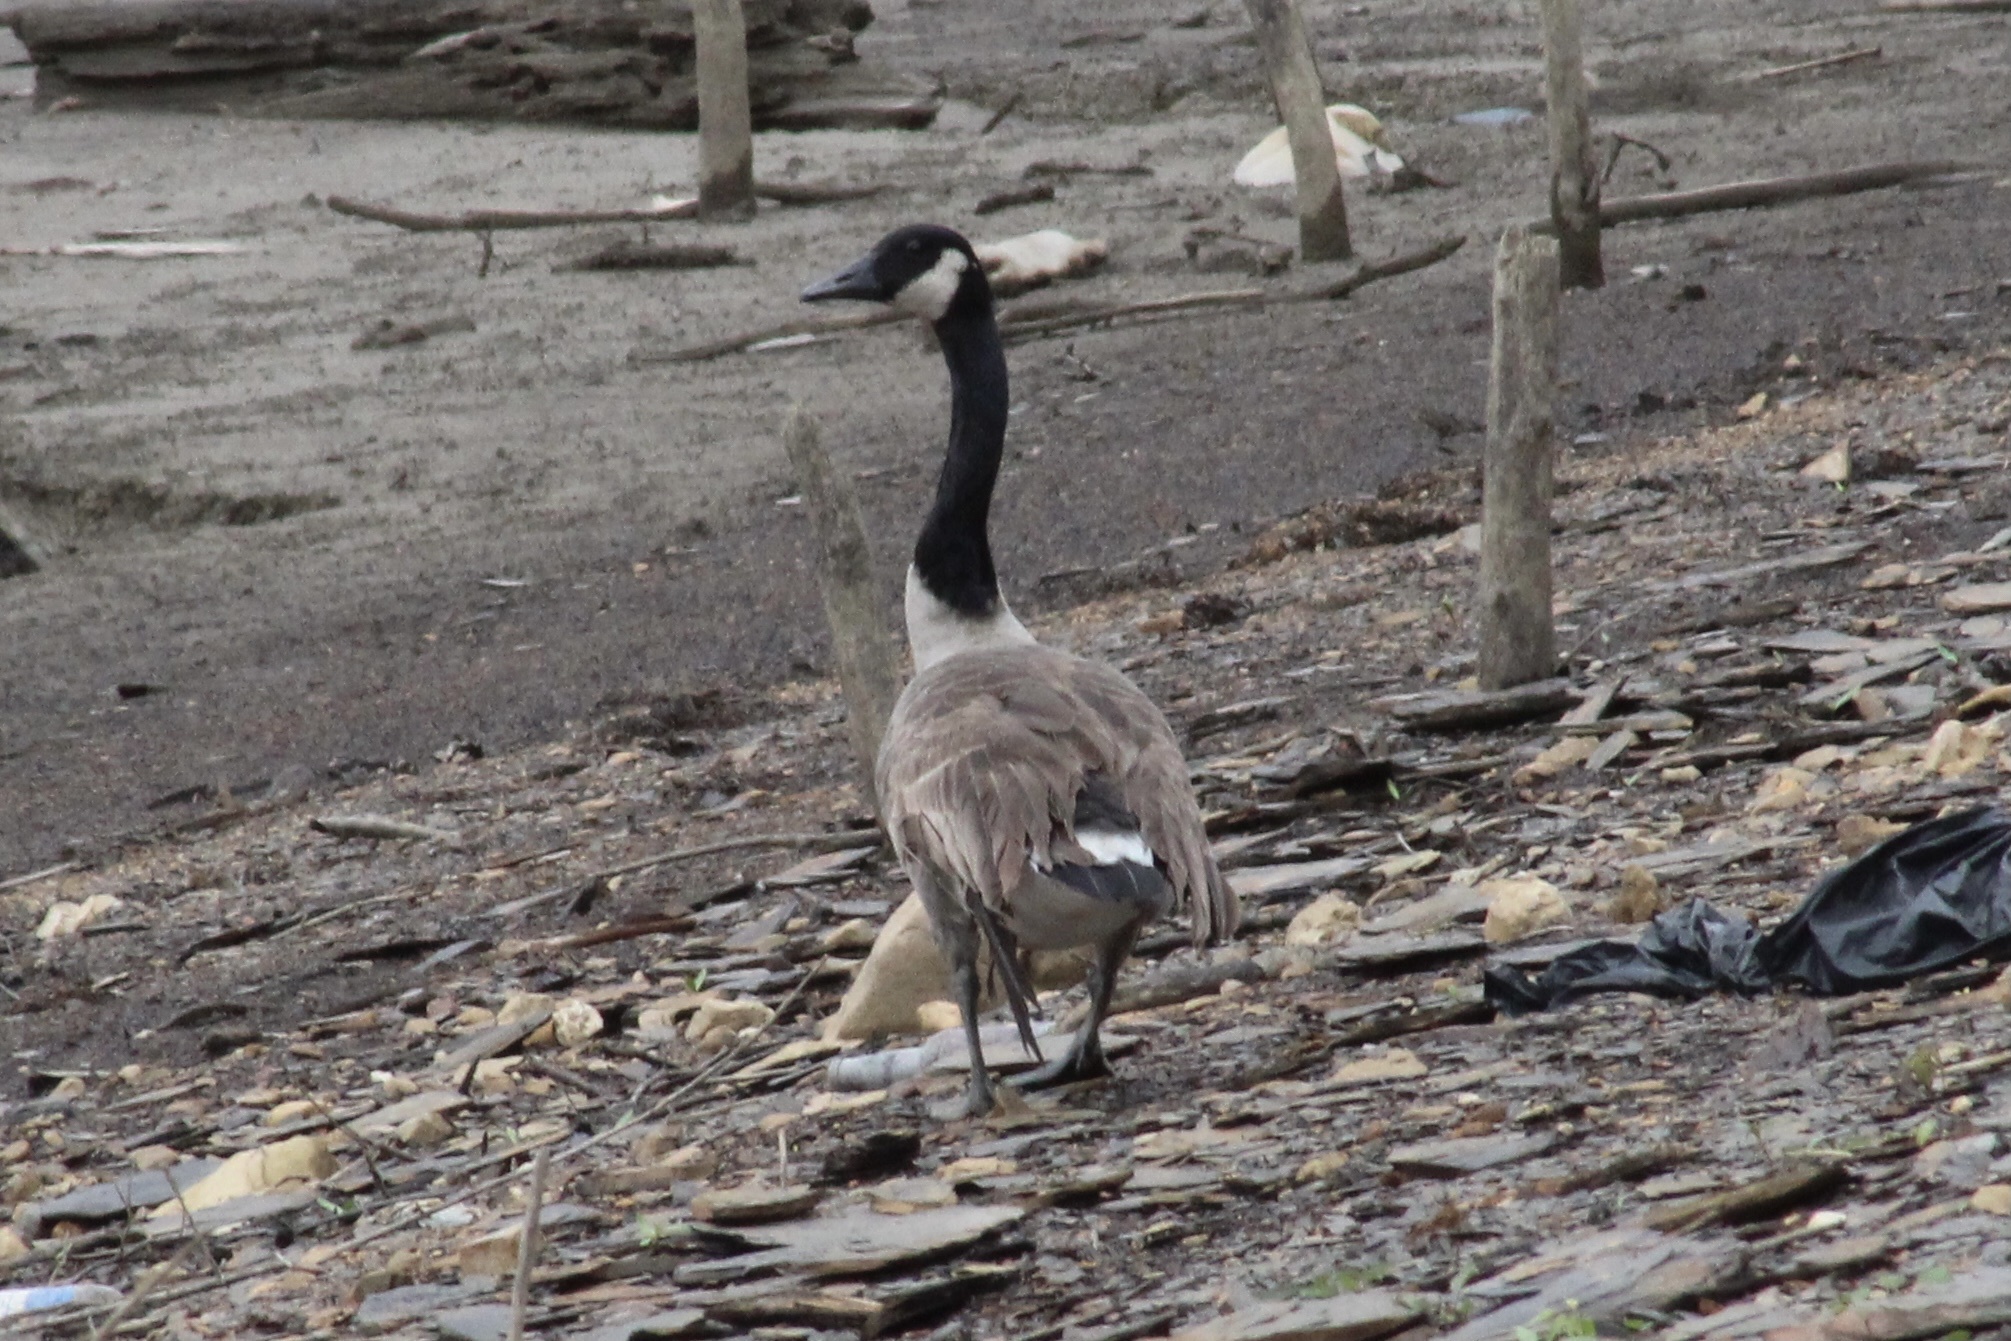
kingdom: Animalia
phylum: Chordata
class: Aves
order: Anseriformes
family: Anatidae
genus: Branta
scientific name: Branta canadensis
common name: Canada goose
